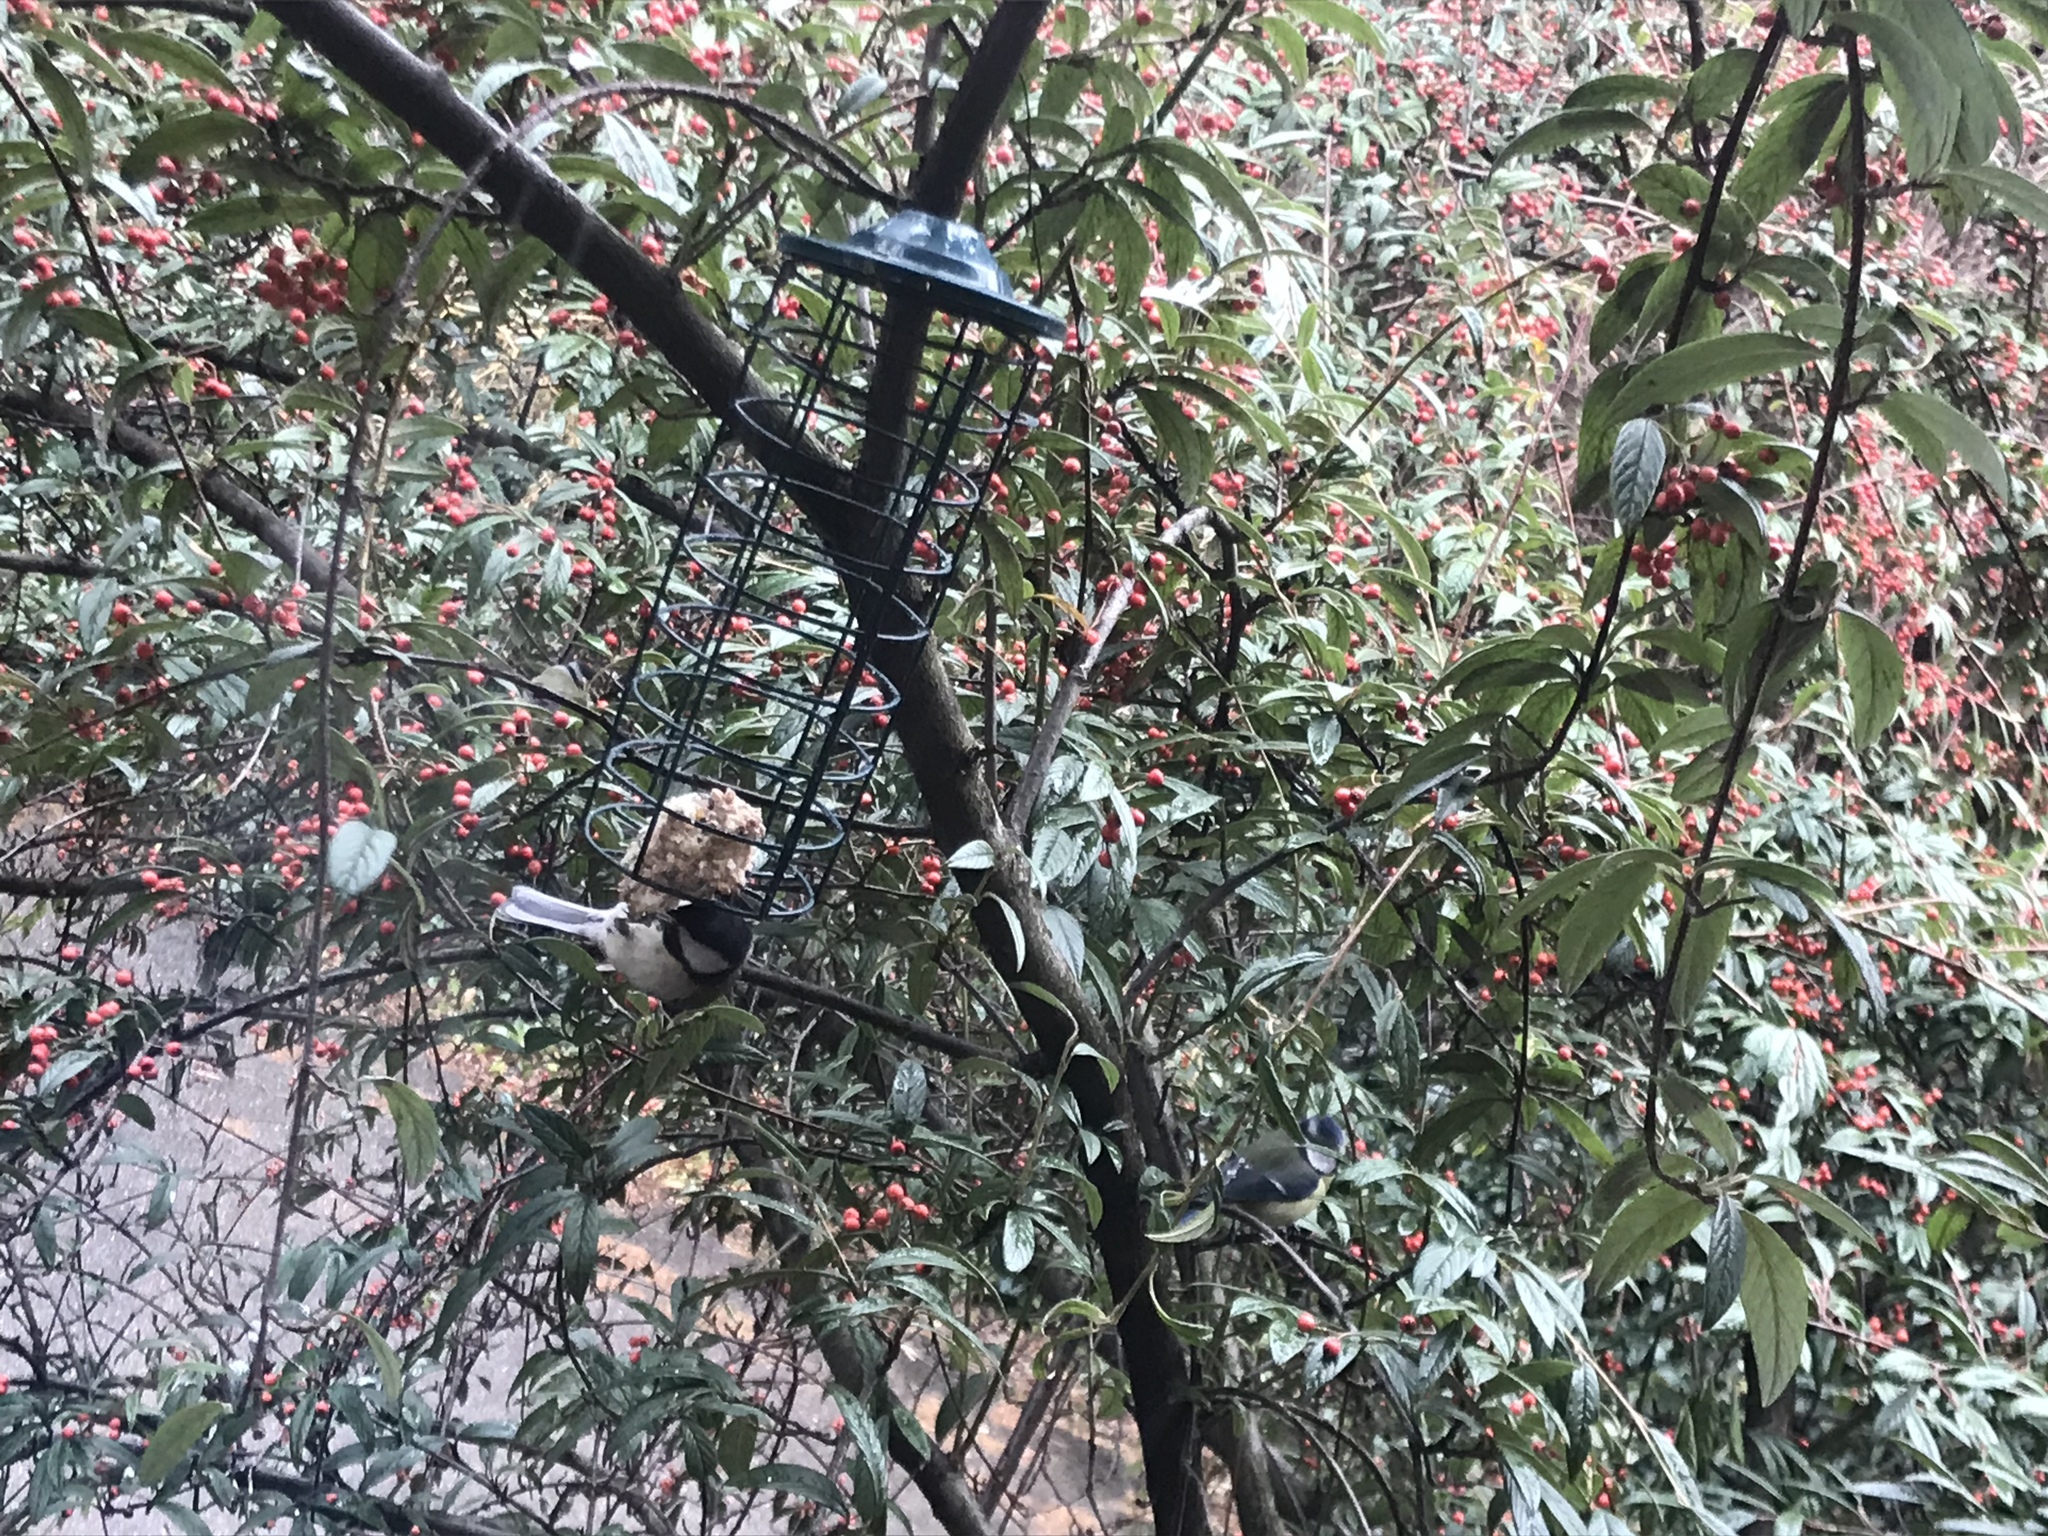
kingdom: Animalia
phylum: Chordata
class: Aves
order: Passeriformes
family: Paridae
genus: Parus
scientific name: Parus major
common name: Great tit
